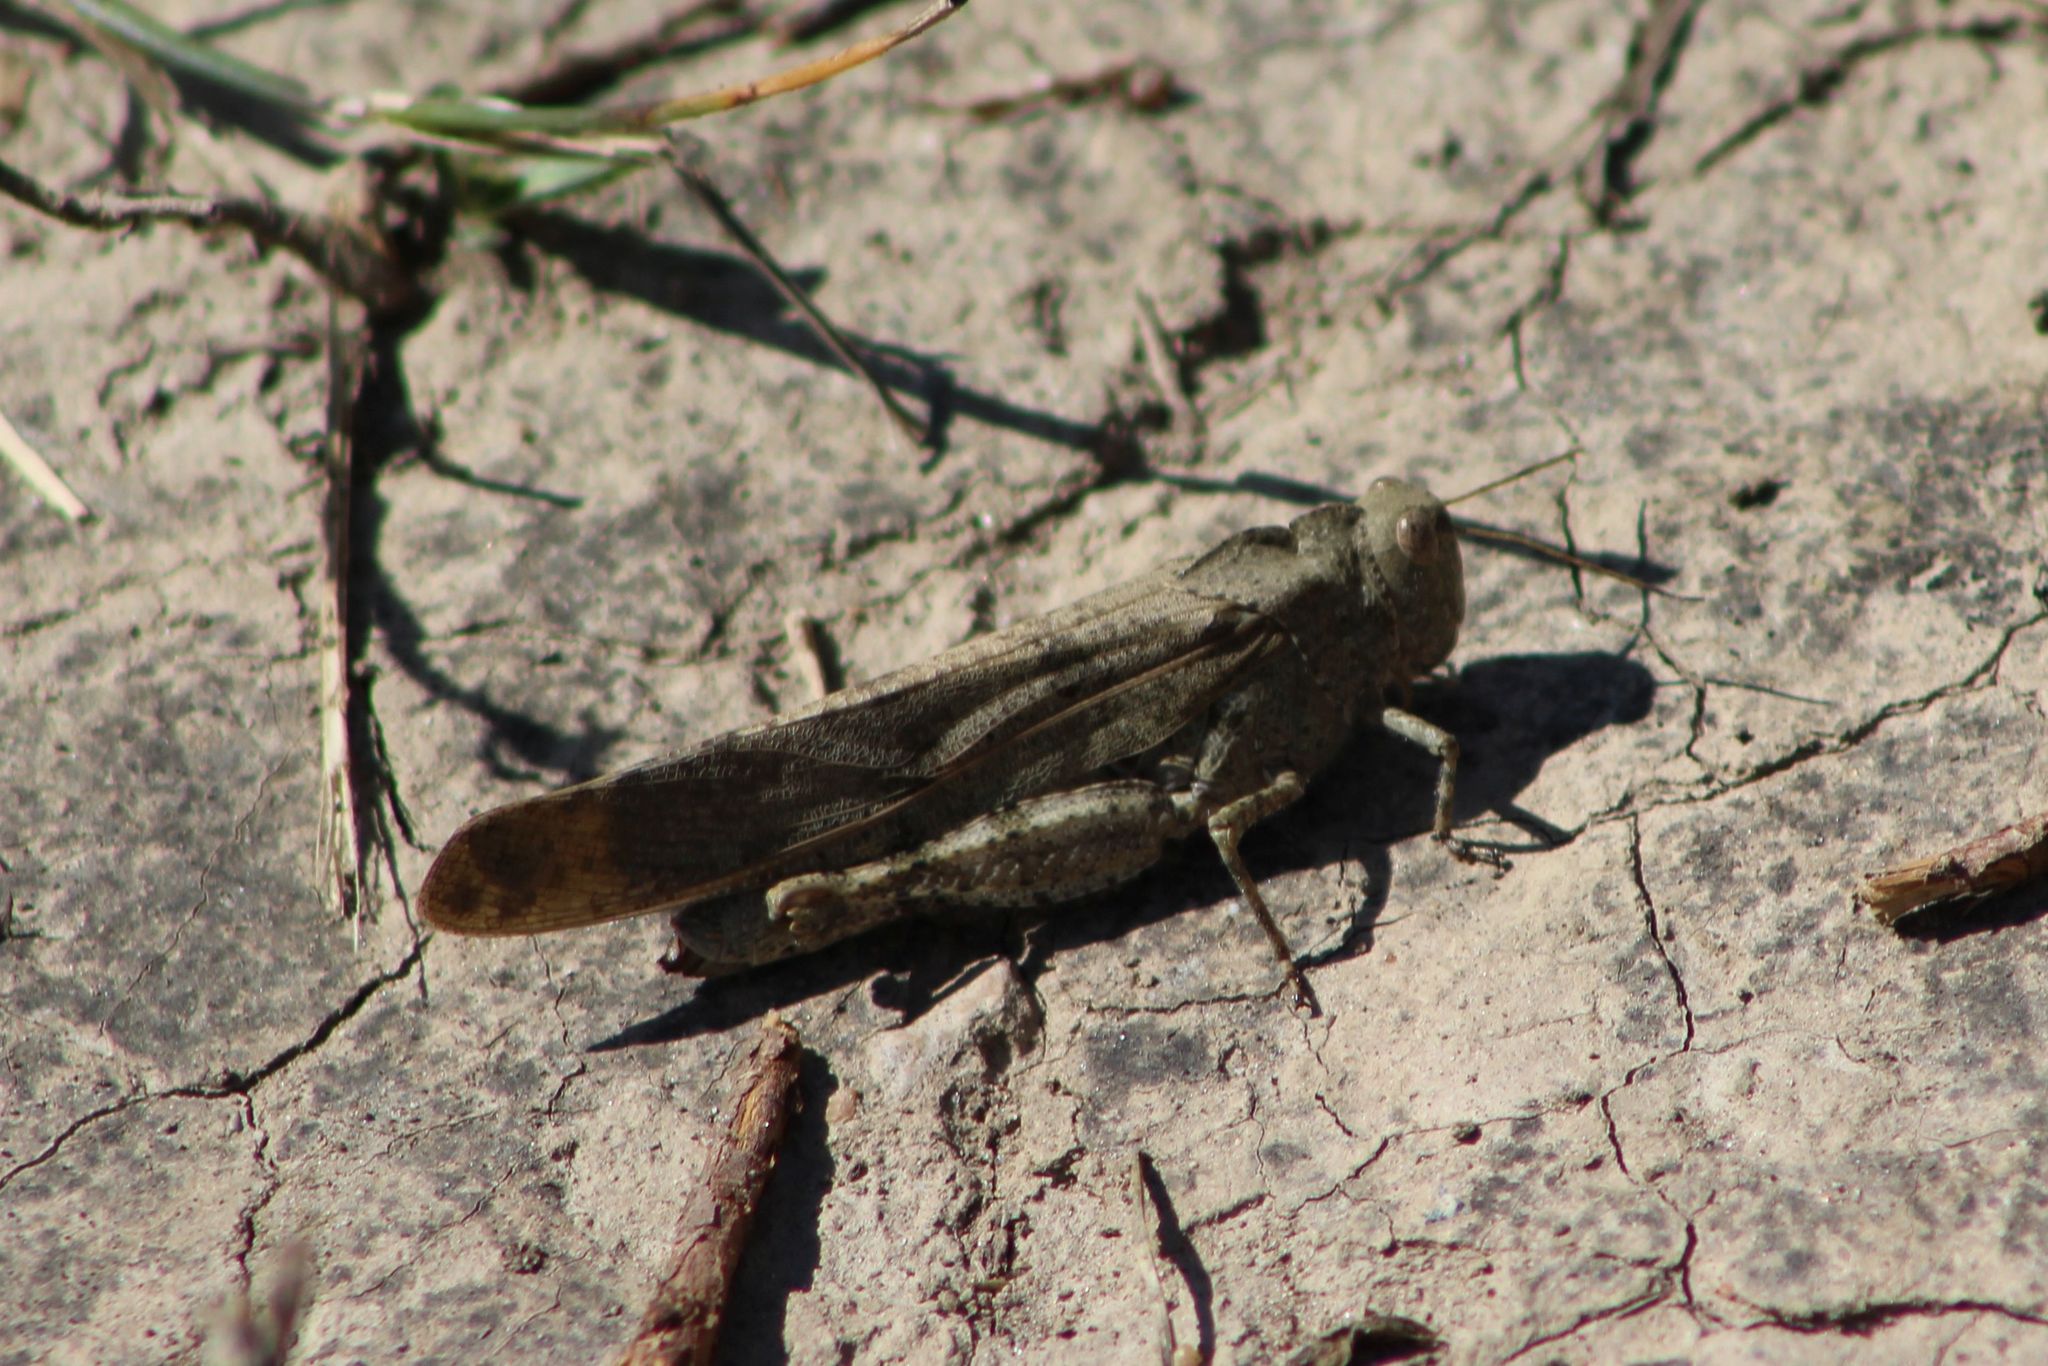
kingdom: Animalia
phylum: Arthropoda
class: Insecta
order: Orthoptera
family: Acrididae
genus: Dissosteira
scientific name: Dissosteira carolina
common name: Carolina grasshopper
